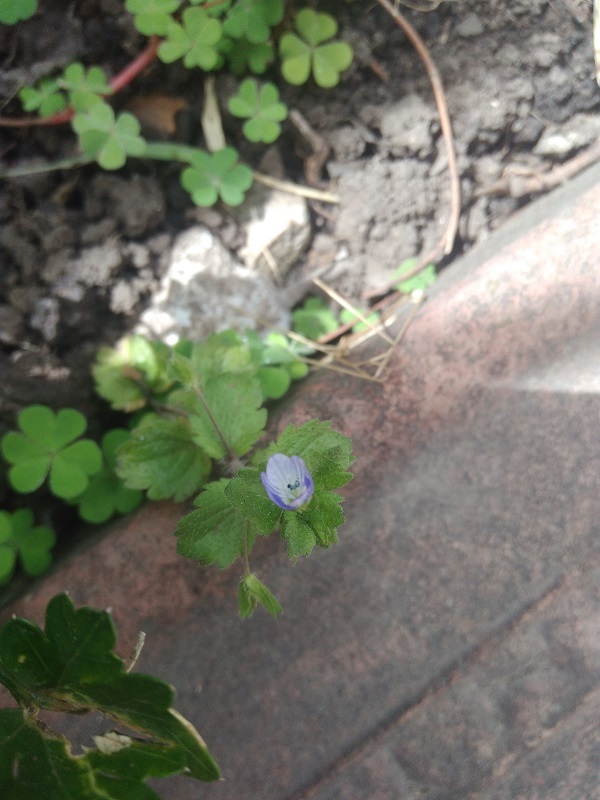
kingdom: Plantae
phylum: Tracheophyta
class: Magnoliopsida
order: Lamiales
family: Plantaginaceae
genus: Veronica
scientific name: Veronica persica
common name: Common field-speedwell
